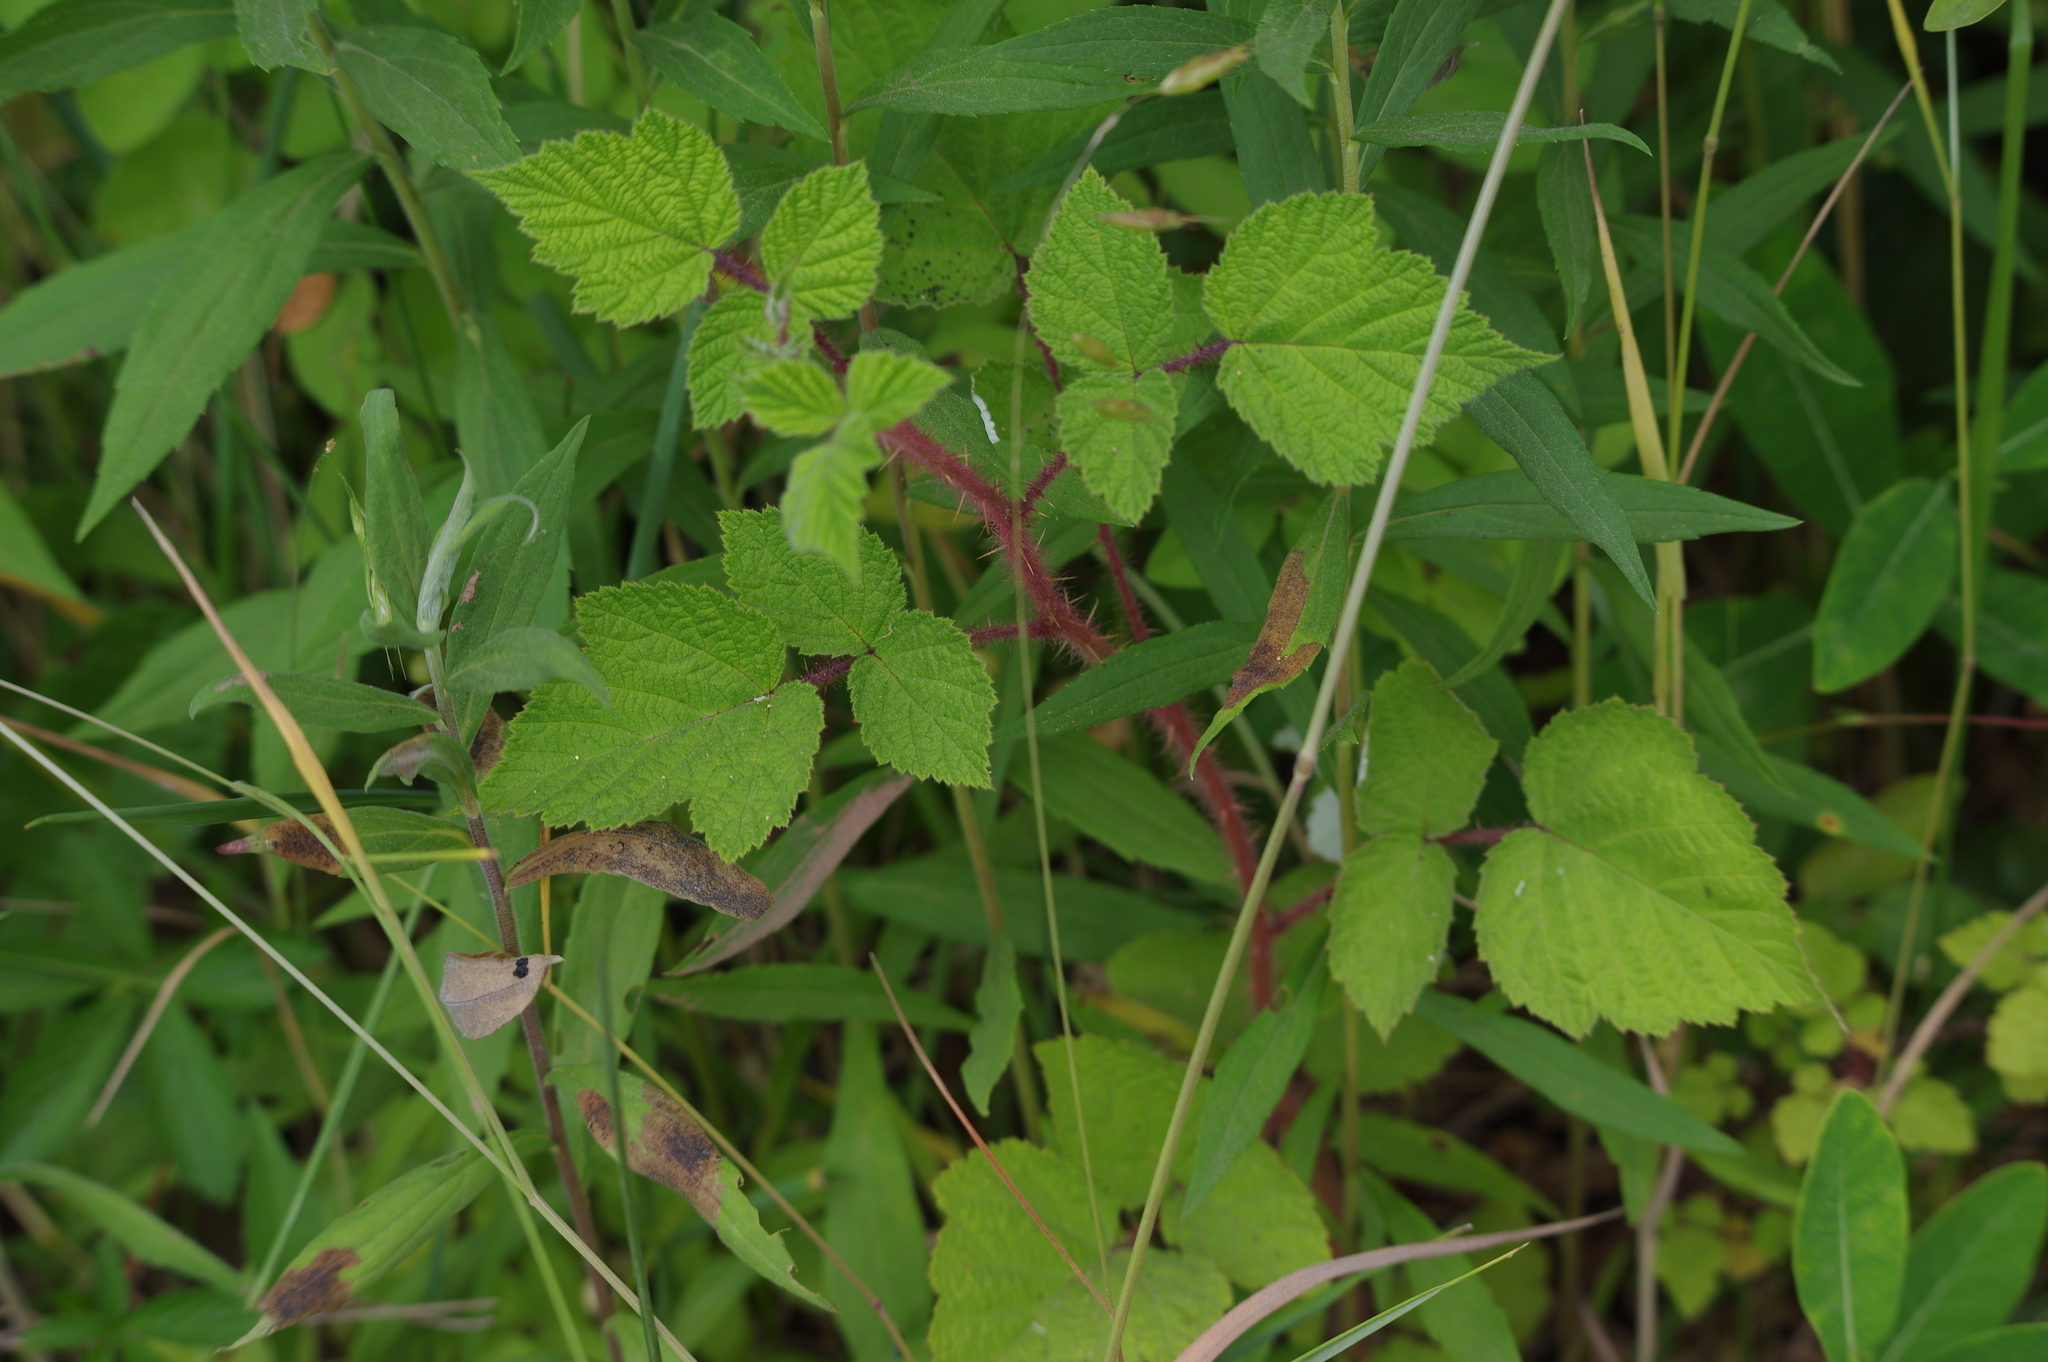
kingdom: Plantae
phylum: Tracheophyta
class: Magnoliopsida
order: Rosales
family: Rosaceae
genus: Rubus
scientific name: Rubus phoenicolasius
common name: Japanese wineberry
